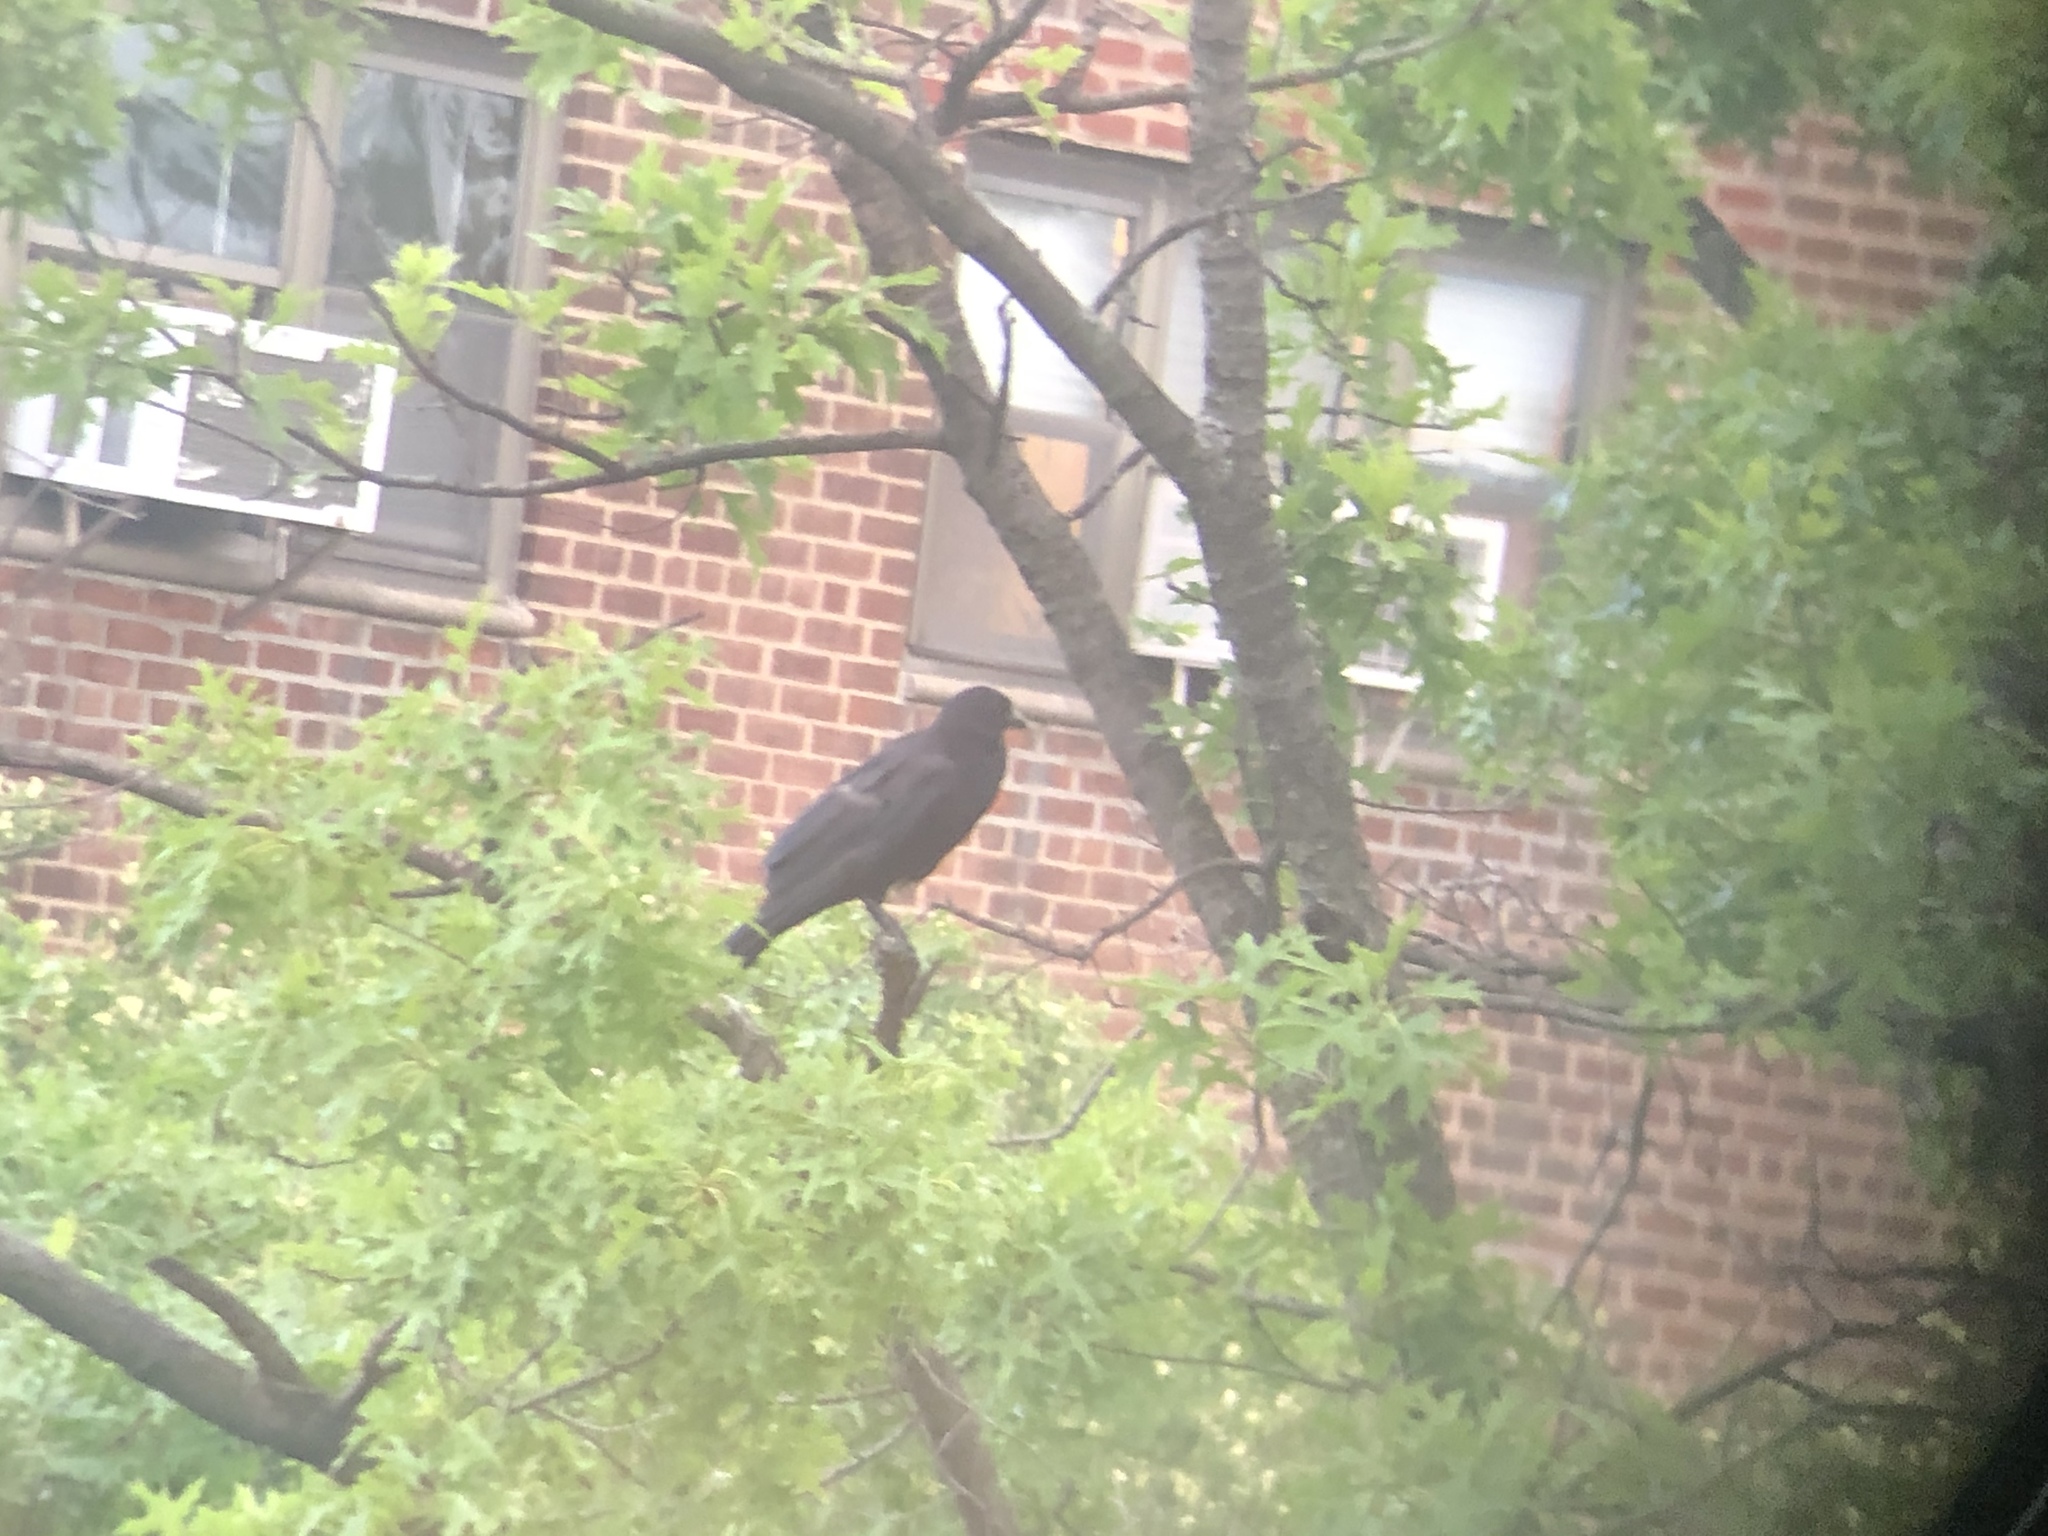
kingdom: Animalia
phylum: Chordata
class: Aves
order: Passeriformes
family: Corvidae
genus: Corvus
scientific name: Corvus brachyrhynchos
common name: American crow
